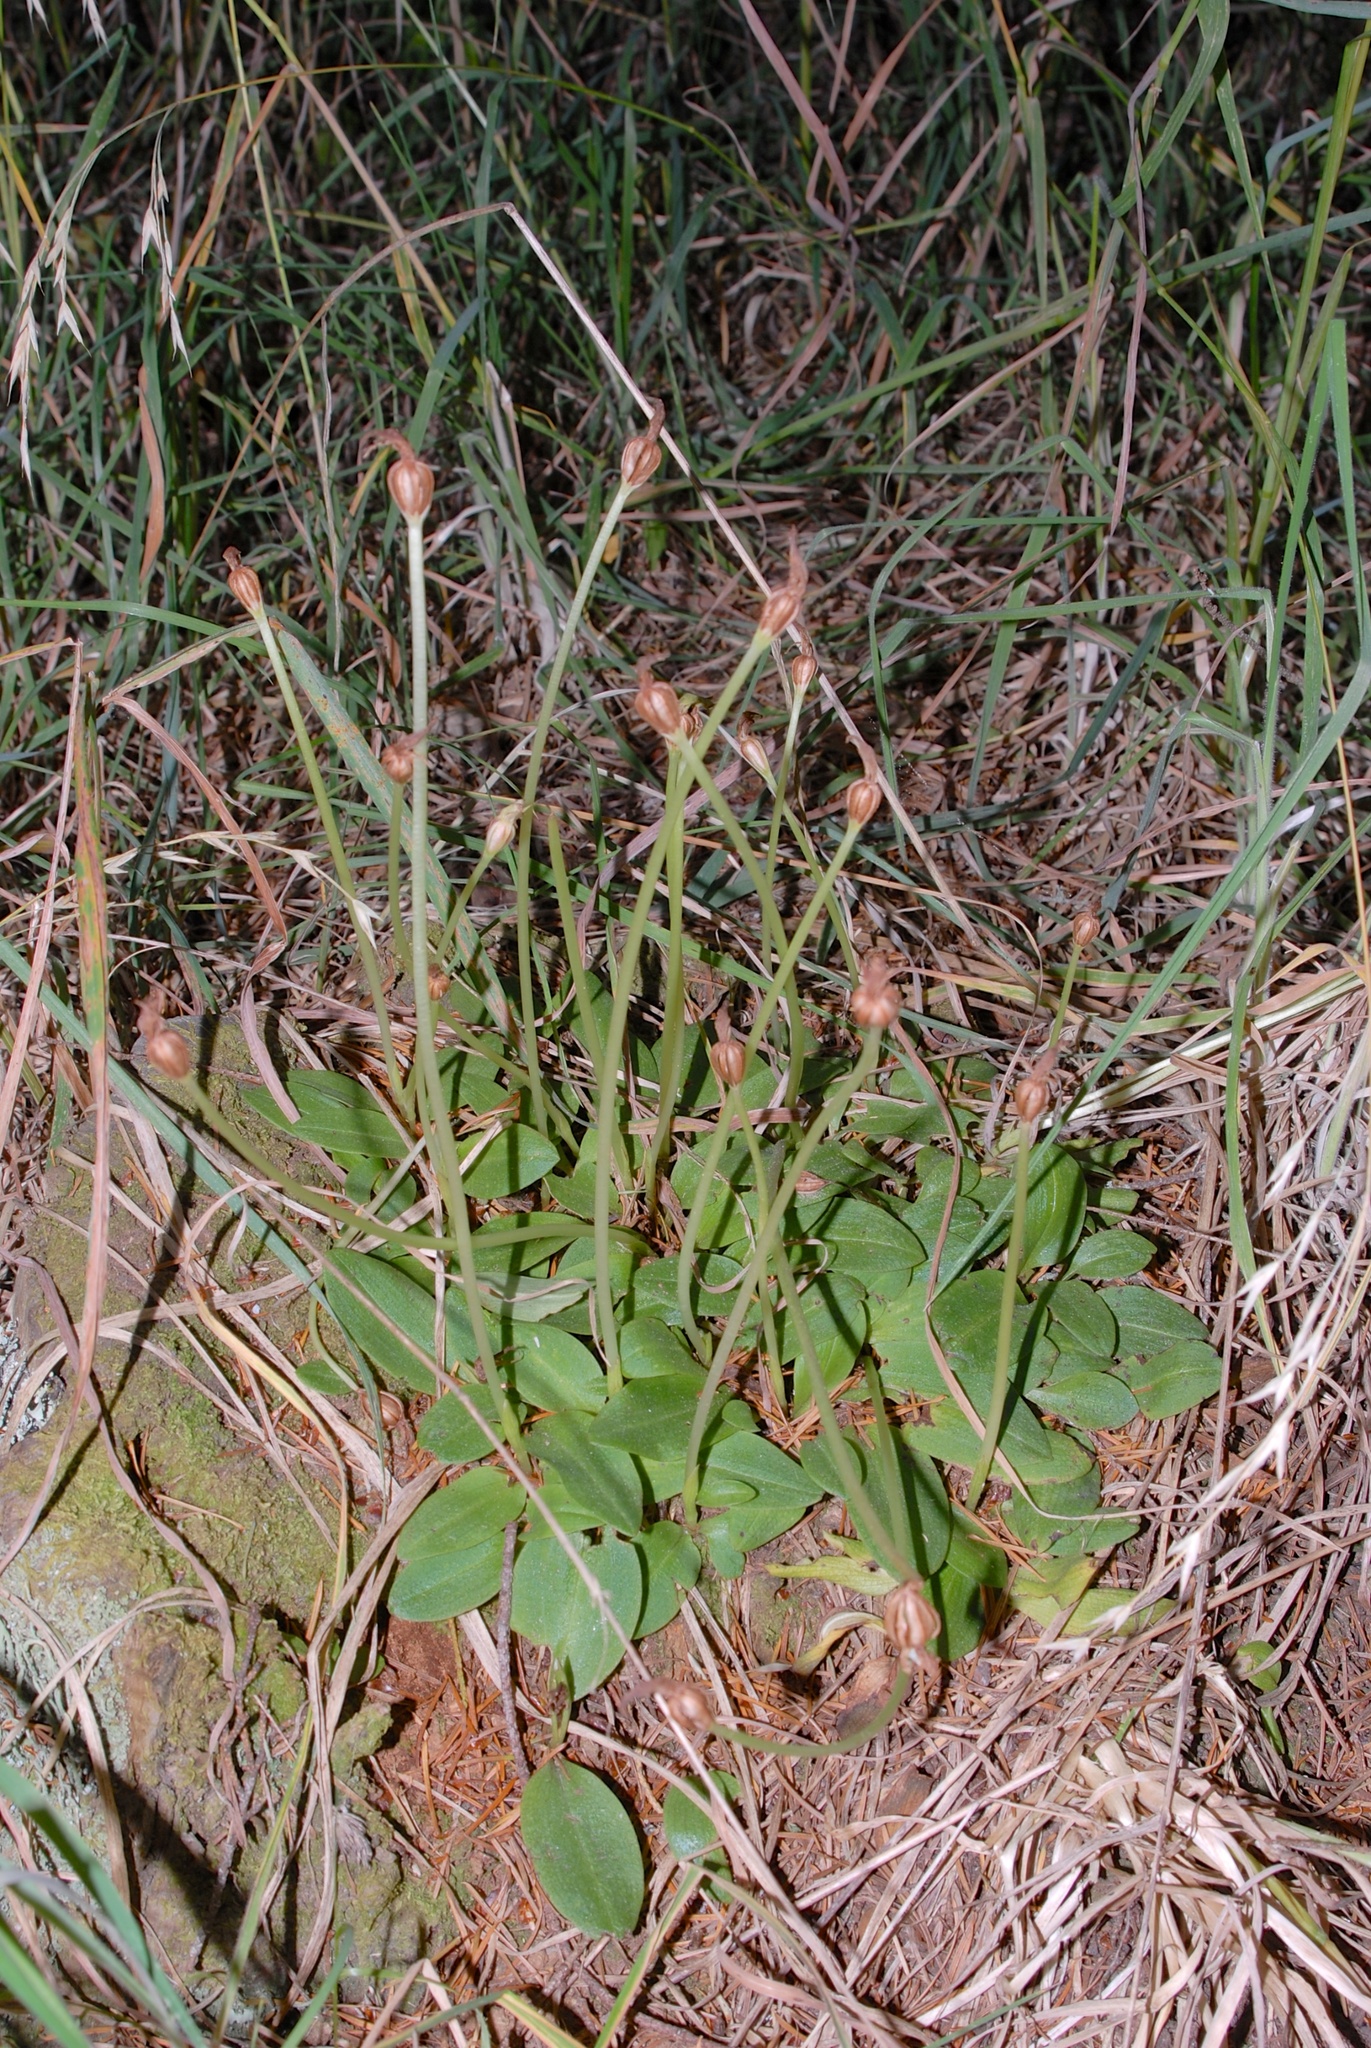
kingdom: Plantae
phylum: Tracheophyta
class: Liliopsida
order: Asparagales
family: Orchidaceae
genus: Chiloglottis
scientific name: Chiloglottis cornuta
